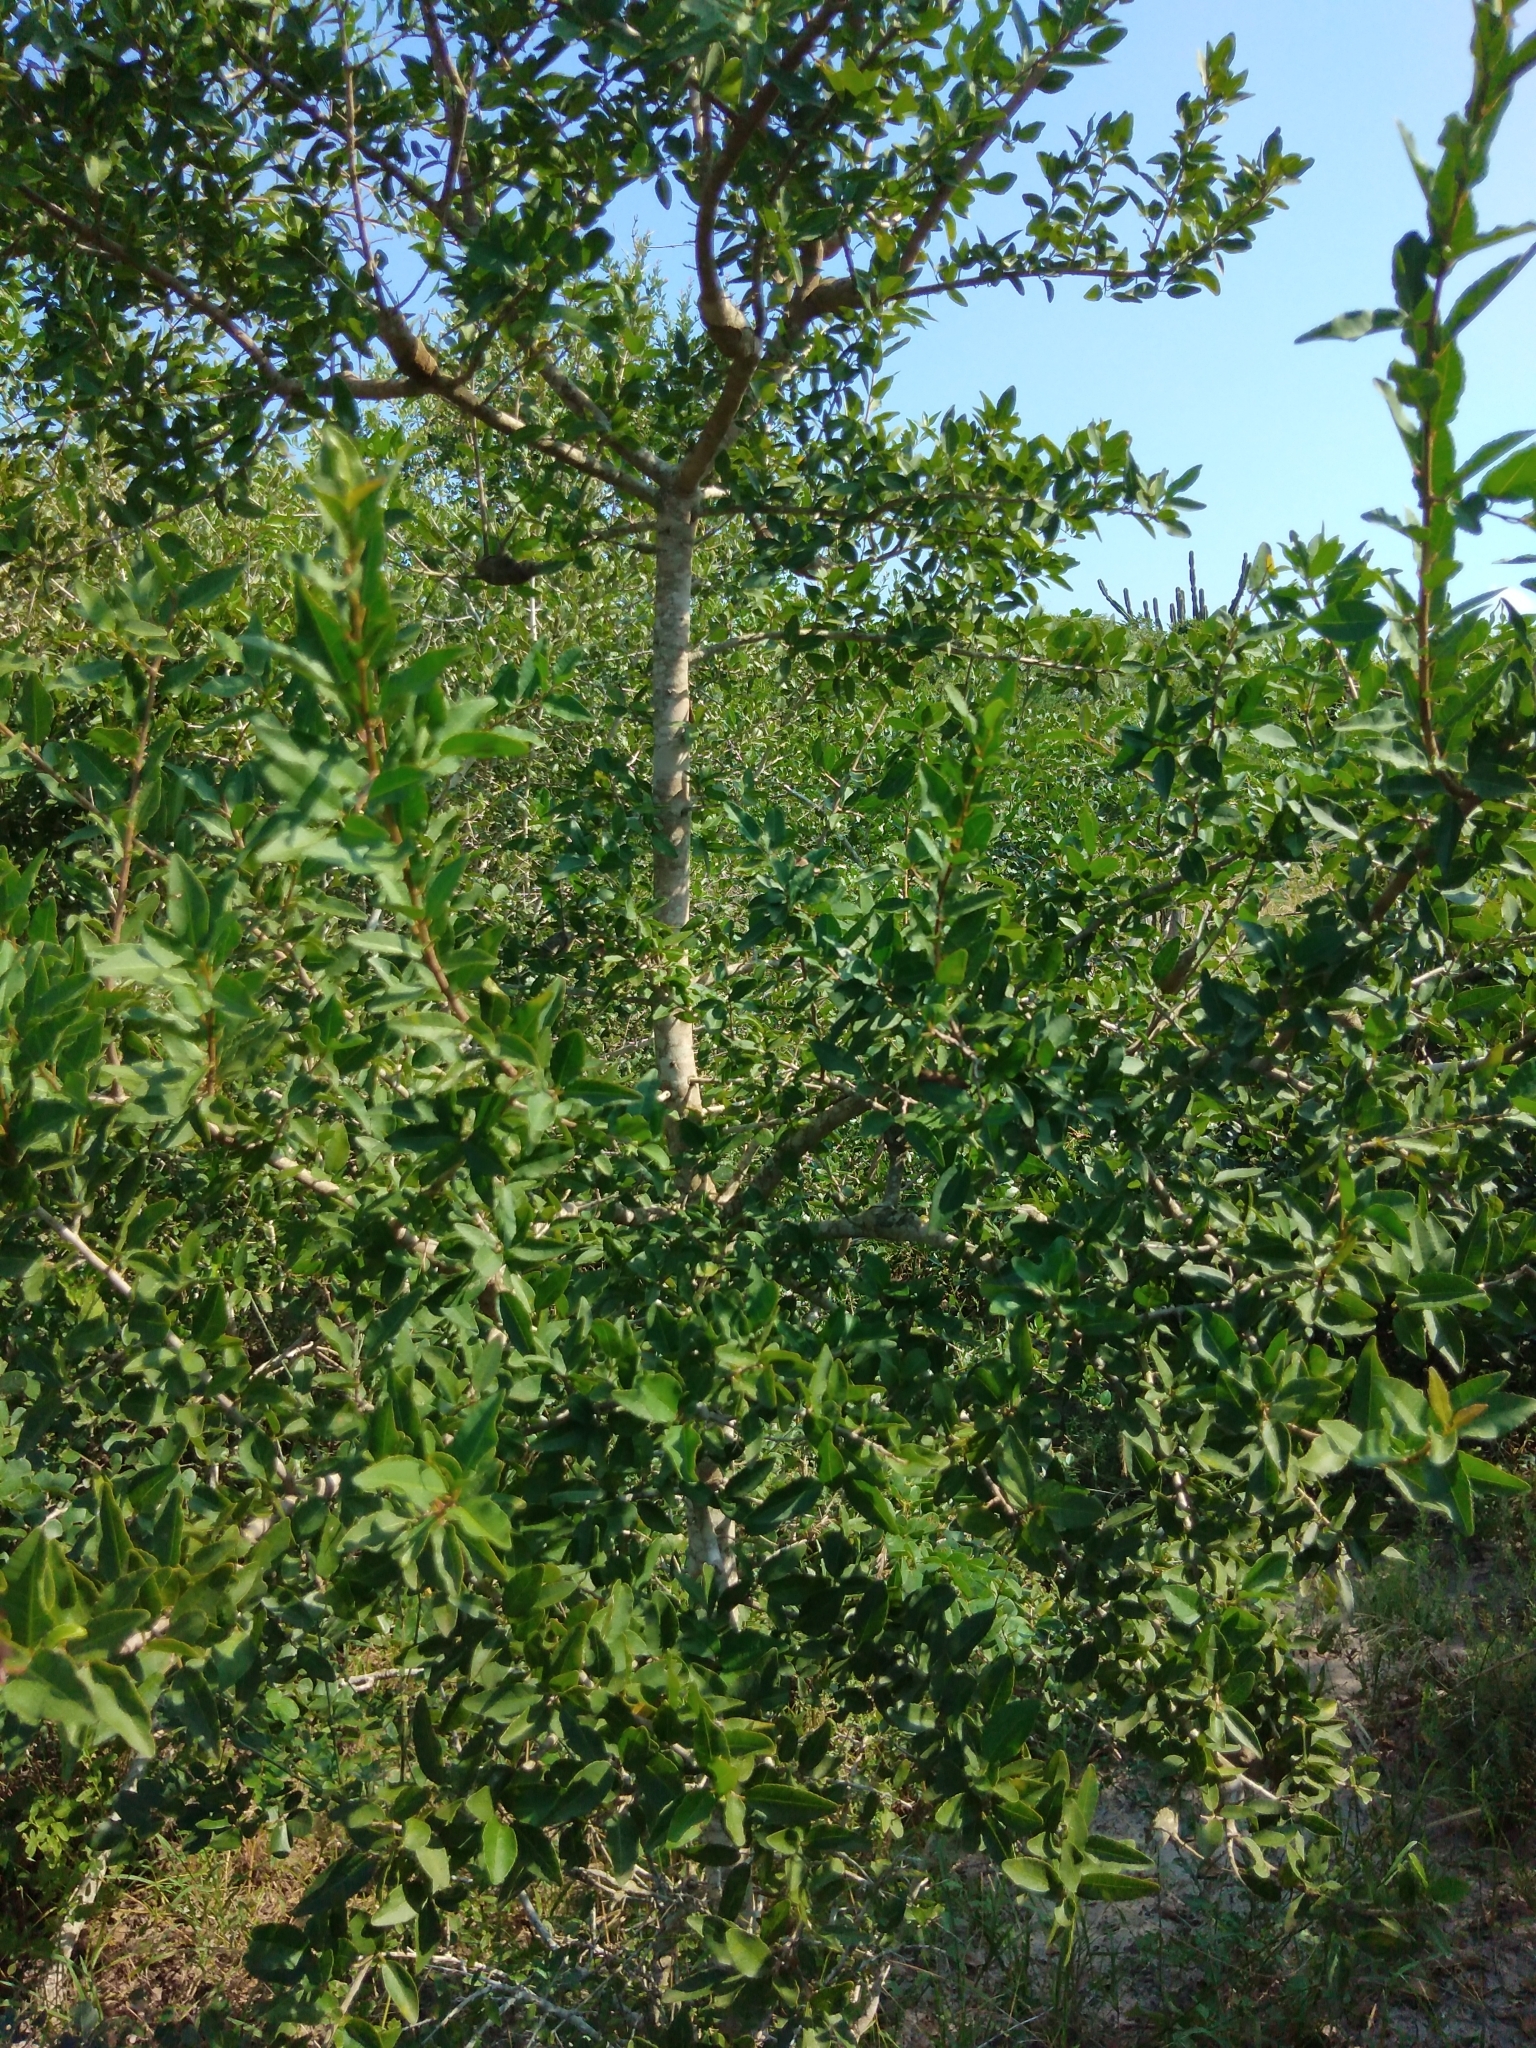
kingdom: Plantae
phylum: Tracheophyta
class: Magnoliopsida
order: Malpighiales
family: Euphorbiaceae
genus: Spirostachys
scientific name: Spirostachys africana
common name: Tamboti
